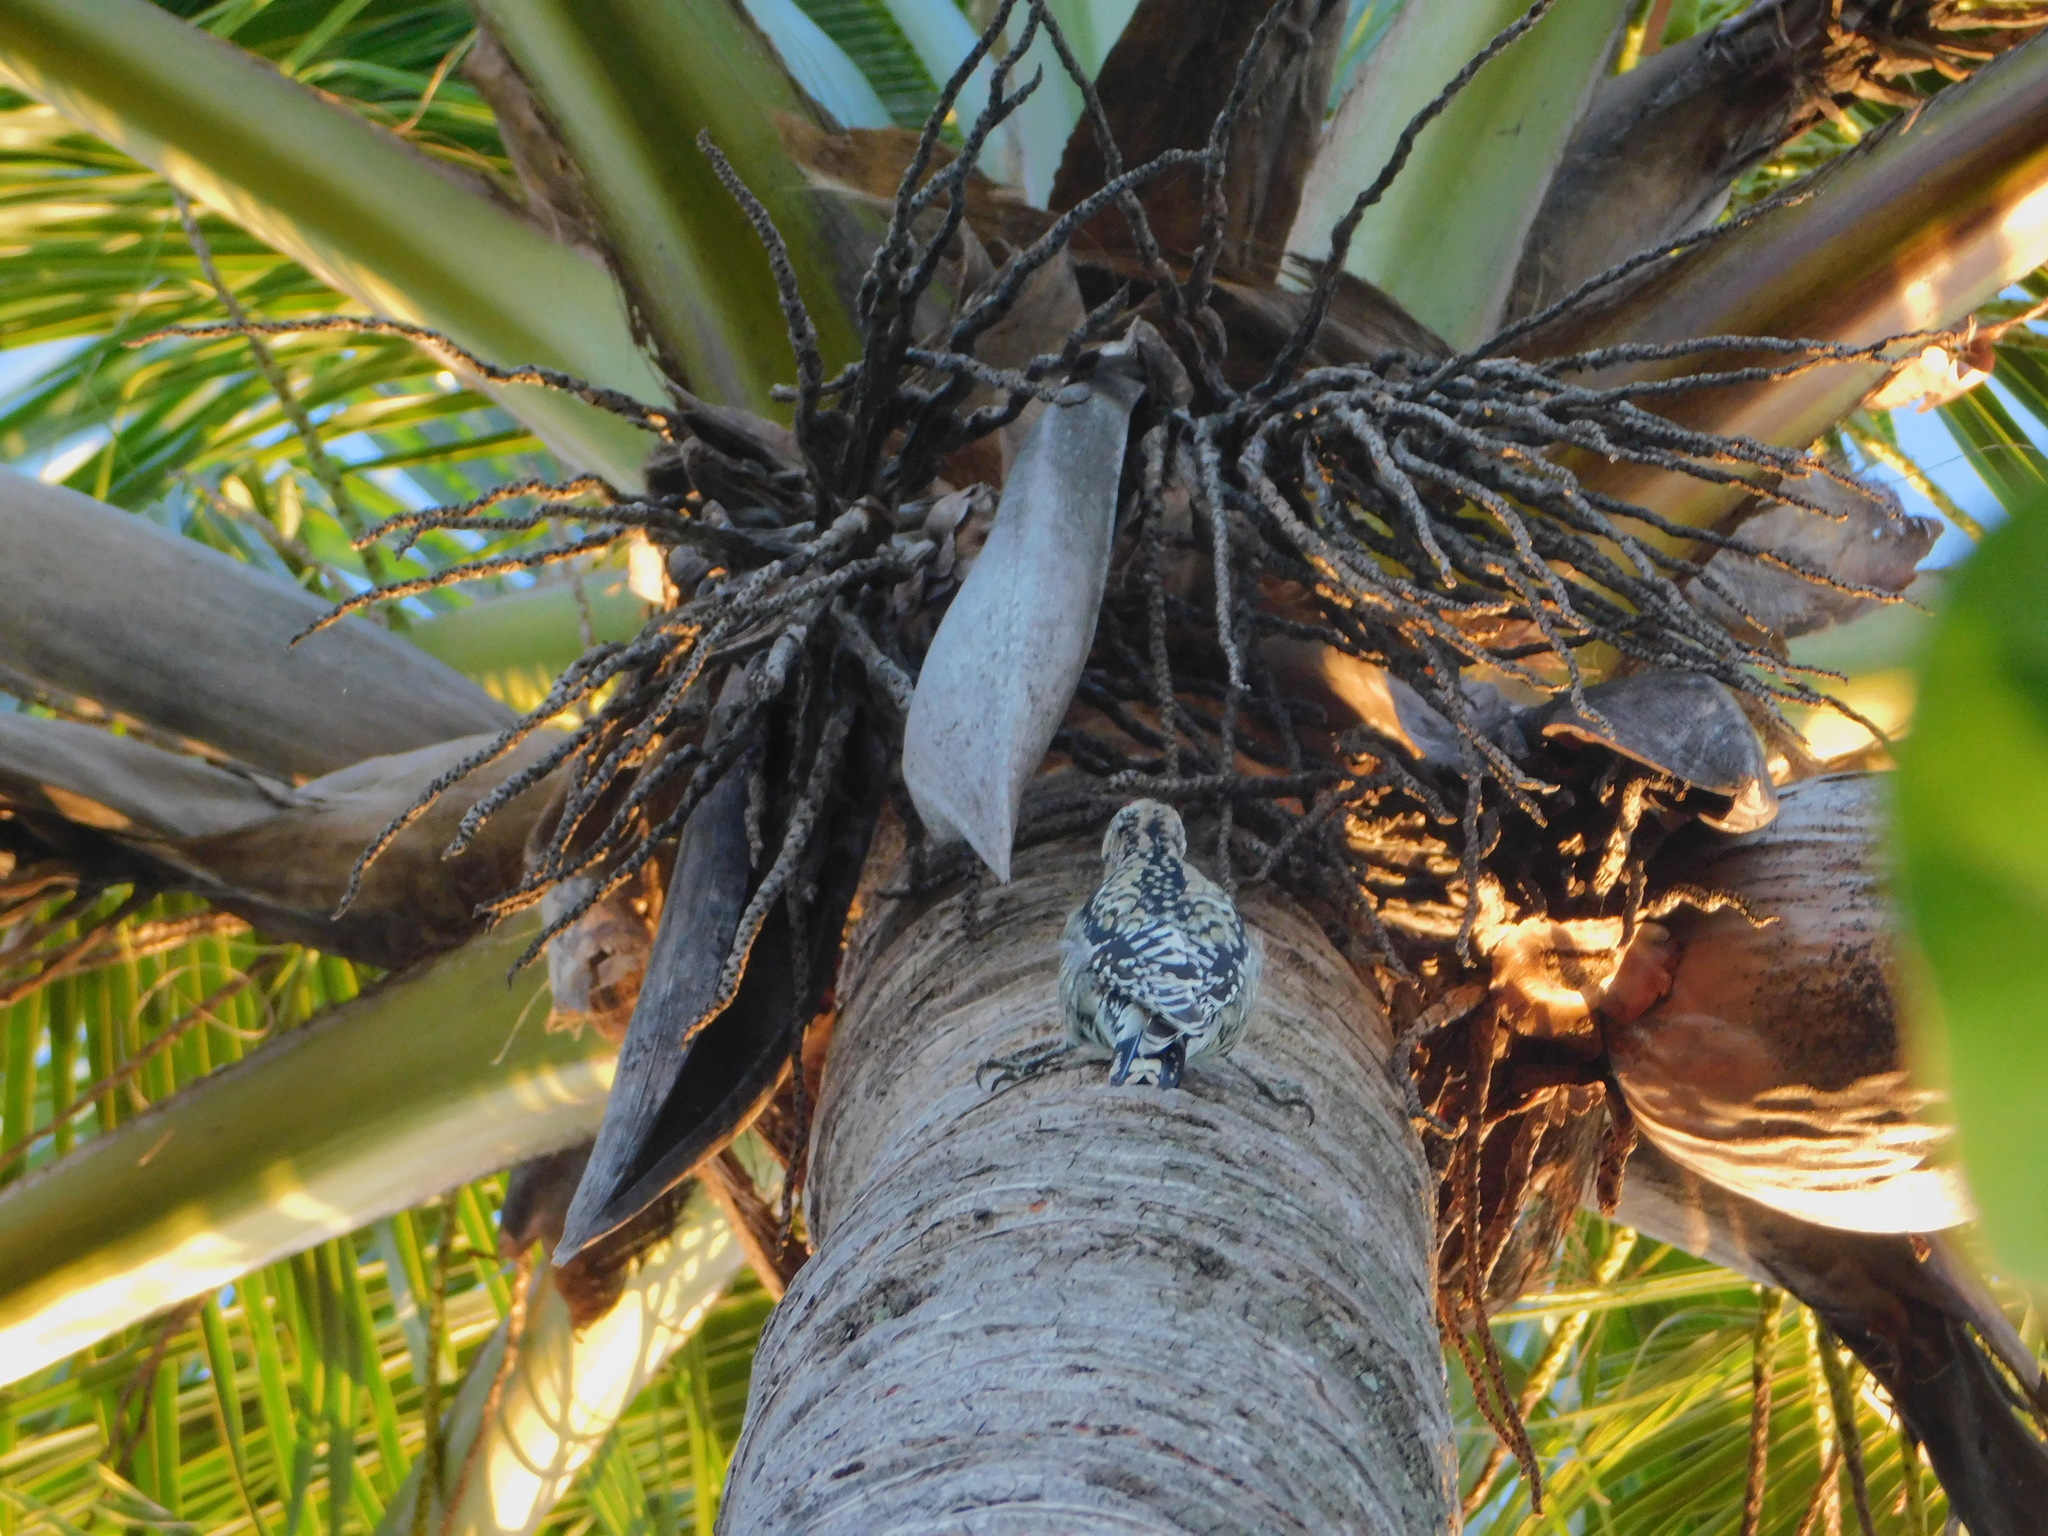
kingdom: Animalia
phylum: Chordata
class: Aves
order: Piciformes
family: Picidae
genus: Sphyrapicus
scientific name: Sphyrapicus varius
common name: Yellow-bellied sapsucker
